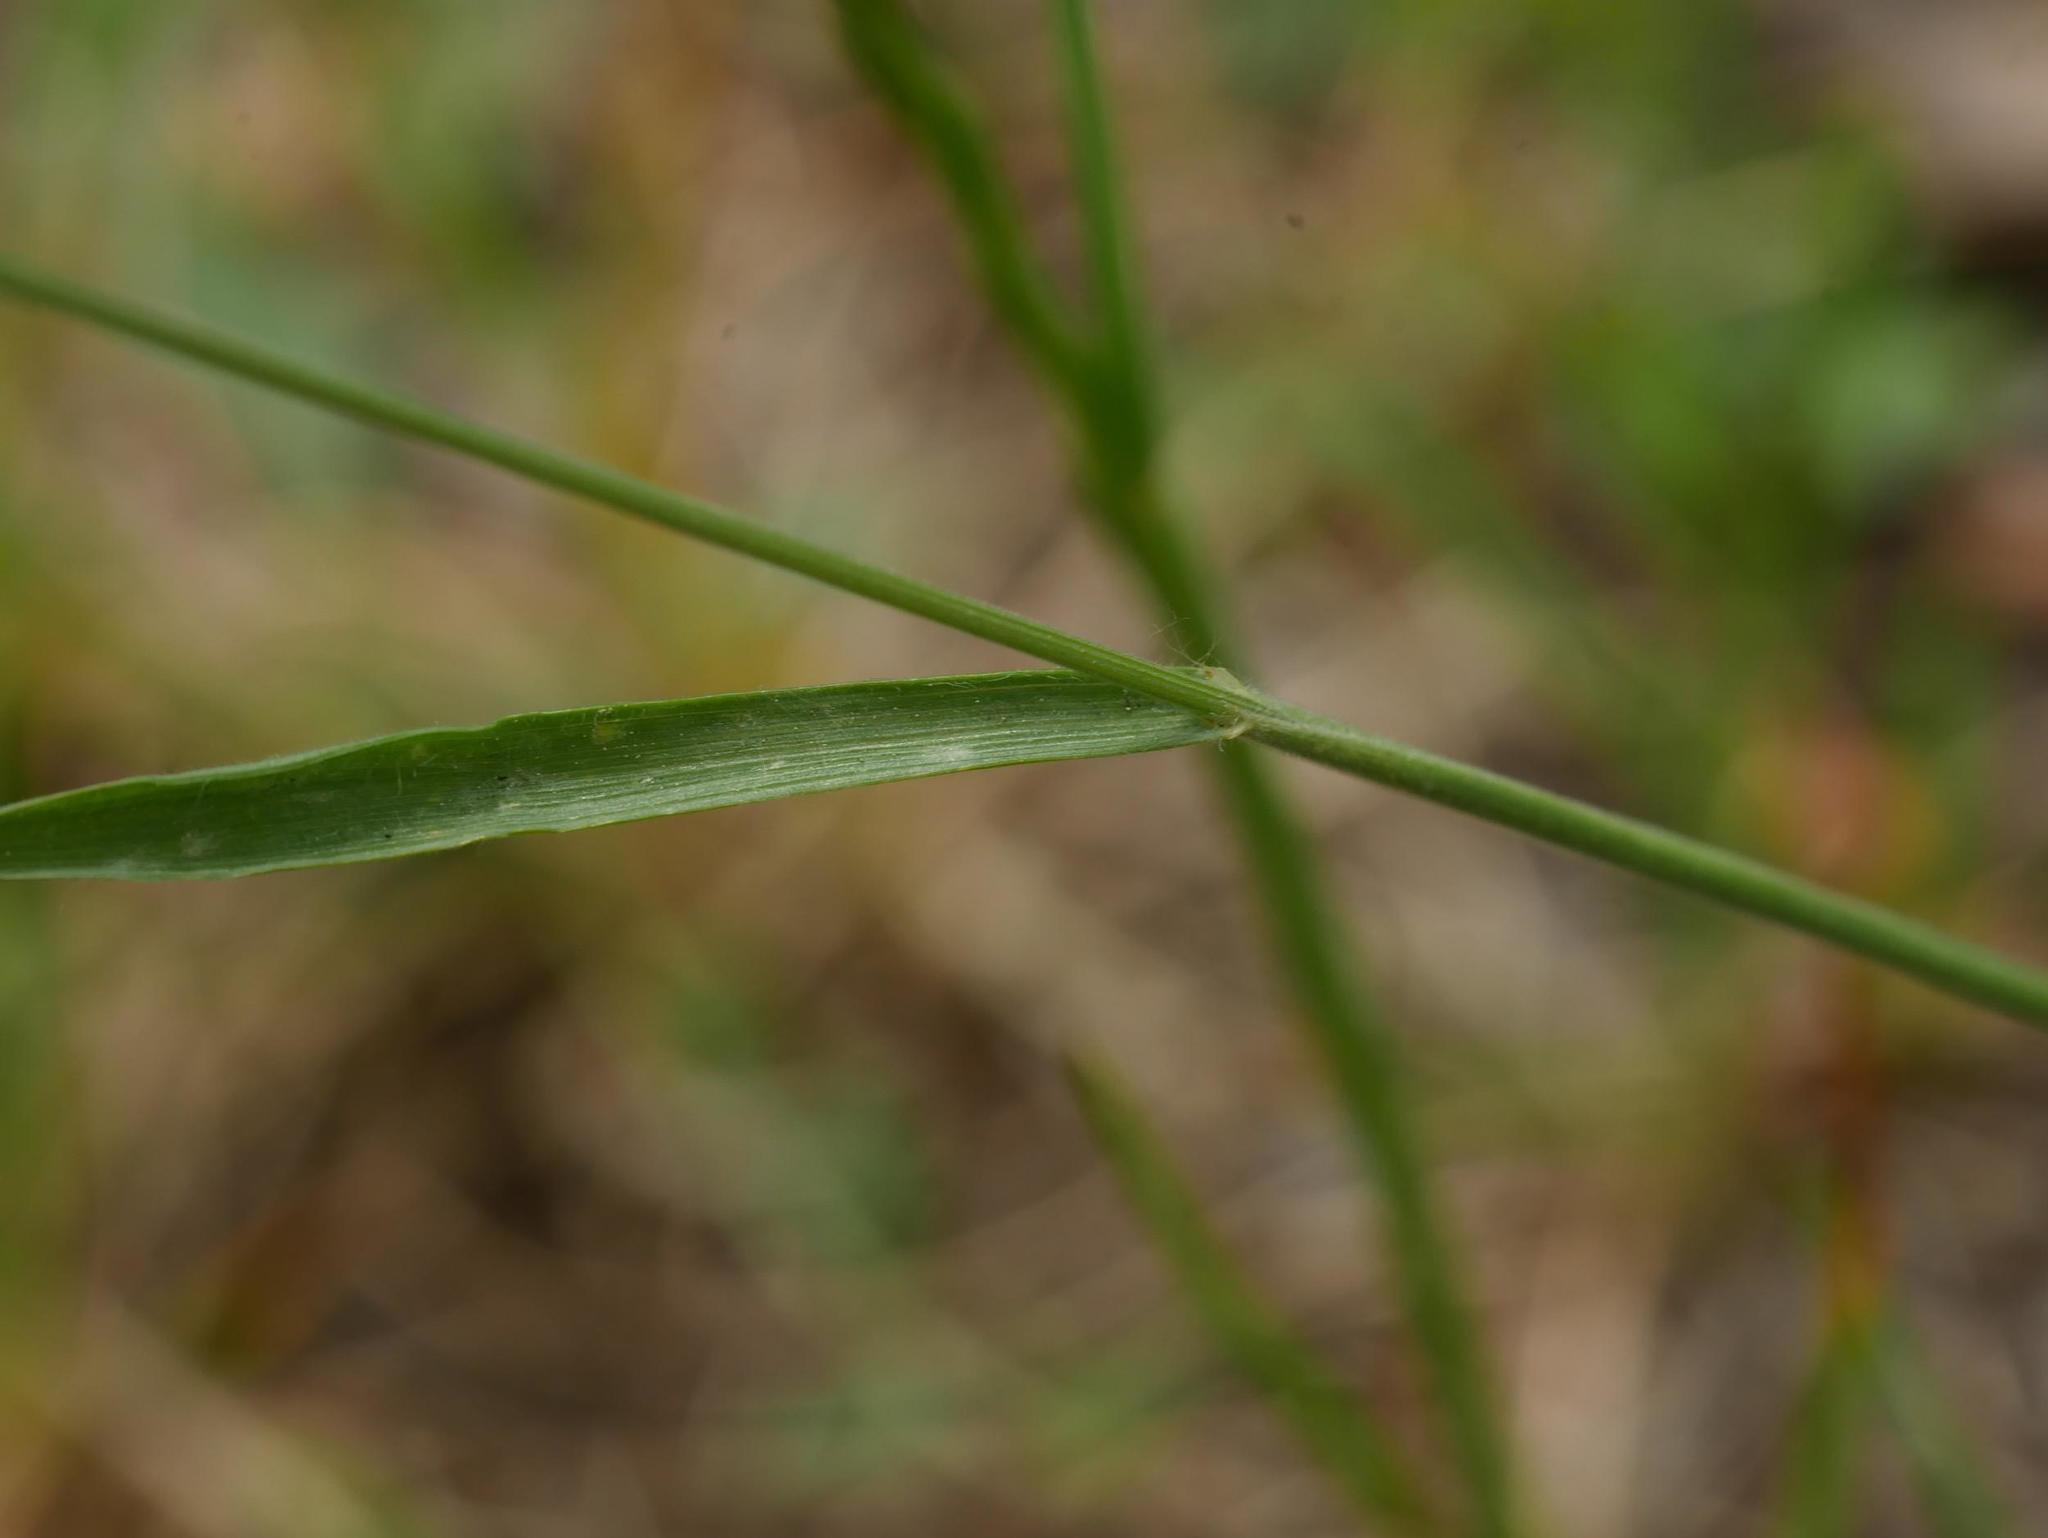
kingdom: Plantae
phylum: Tracheophyta
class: Liliopsida
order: Poales
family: Poaceae
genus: Bromus
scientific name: Bromus hordeaceus
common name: Soft brome
